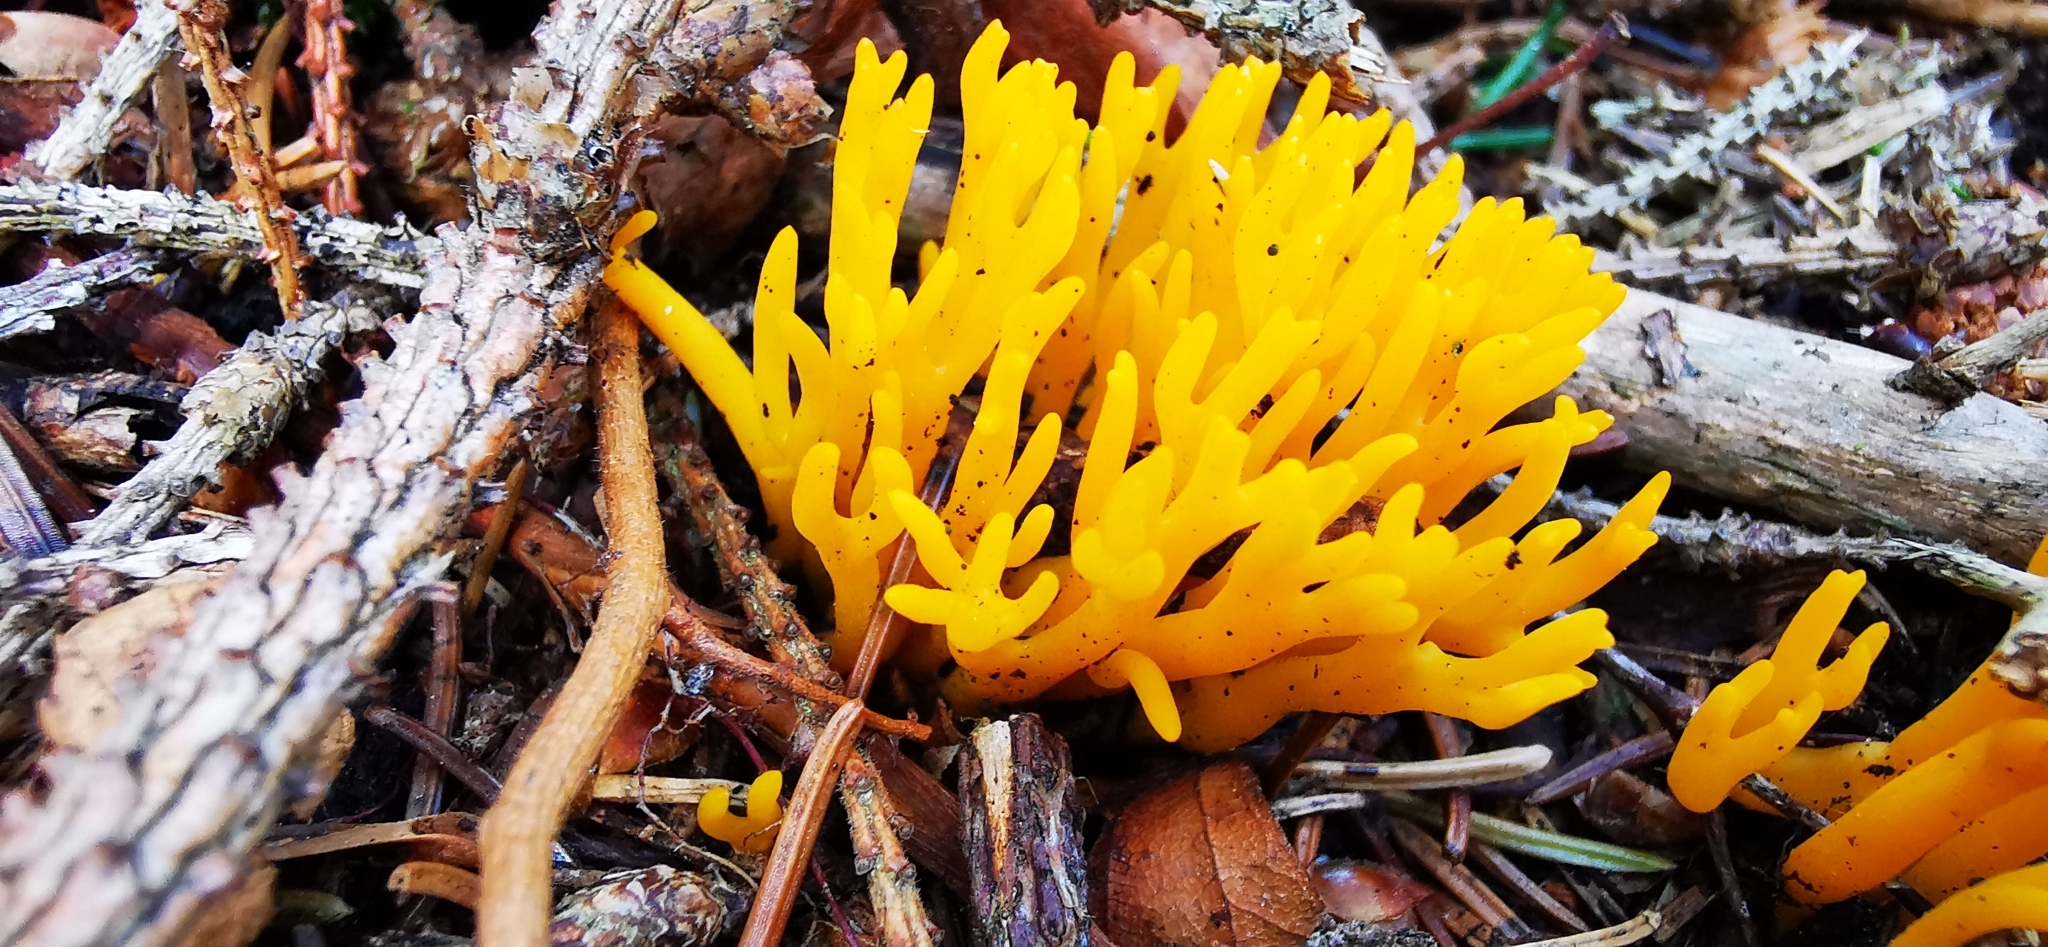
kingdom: Fungi
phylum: Basidiomycota
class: Dacrymycetes
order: Dacrymycetales
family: Dacrymycetaceae
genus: Calocera
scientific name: Calocera viscosa
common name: Yellow stagshorn
